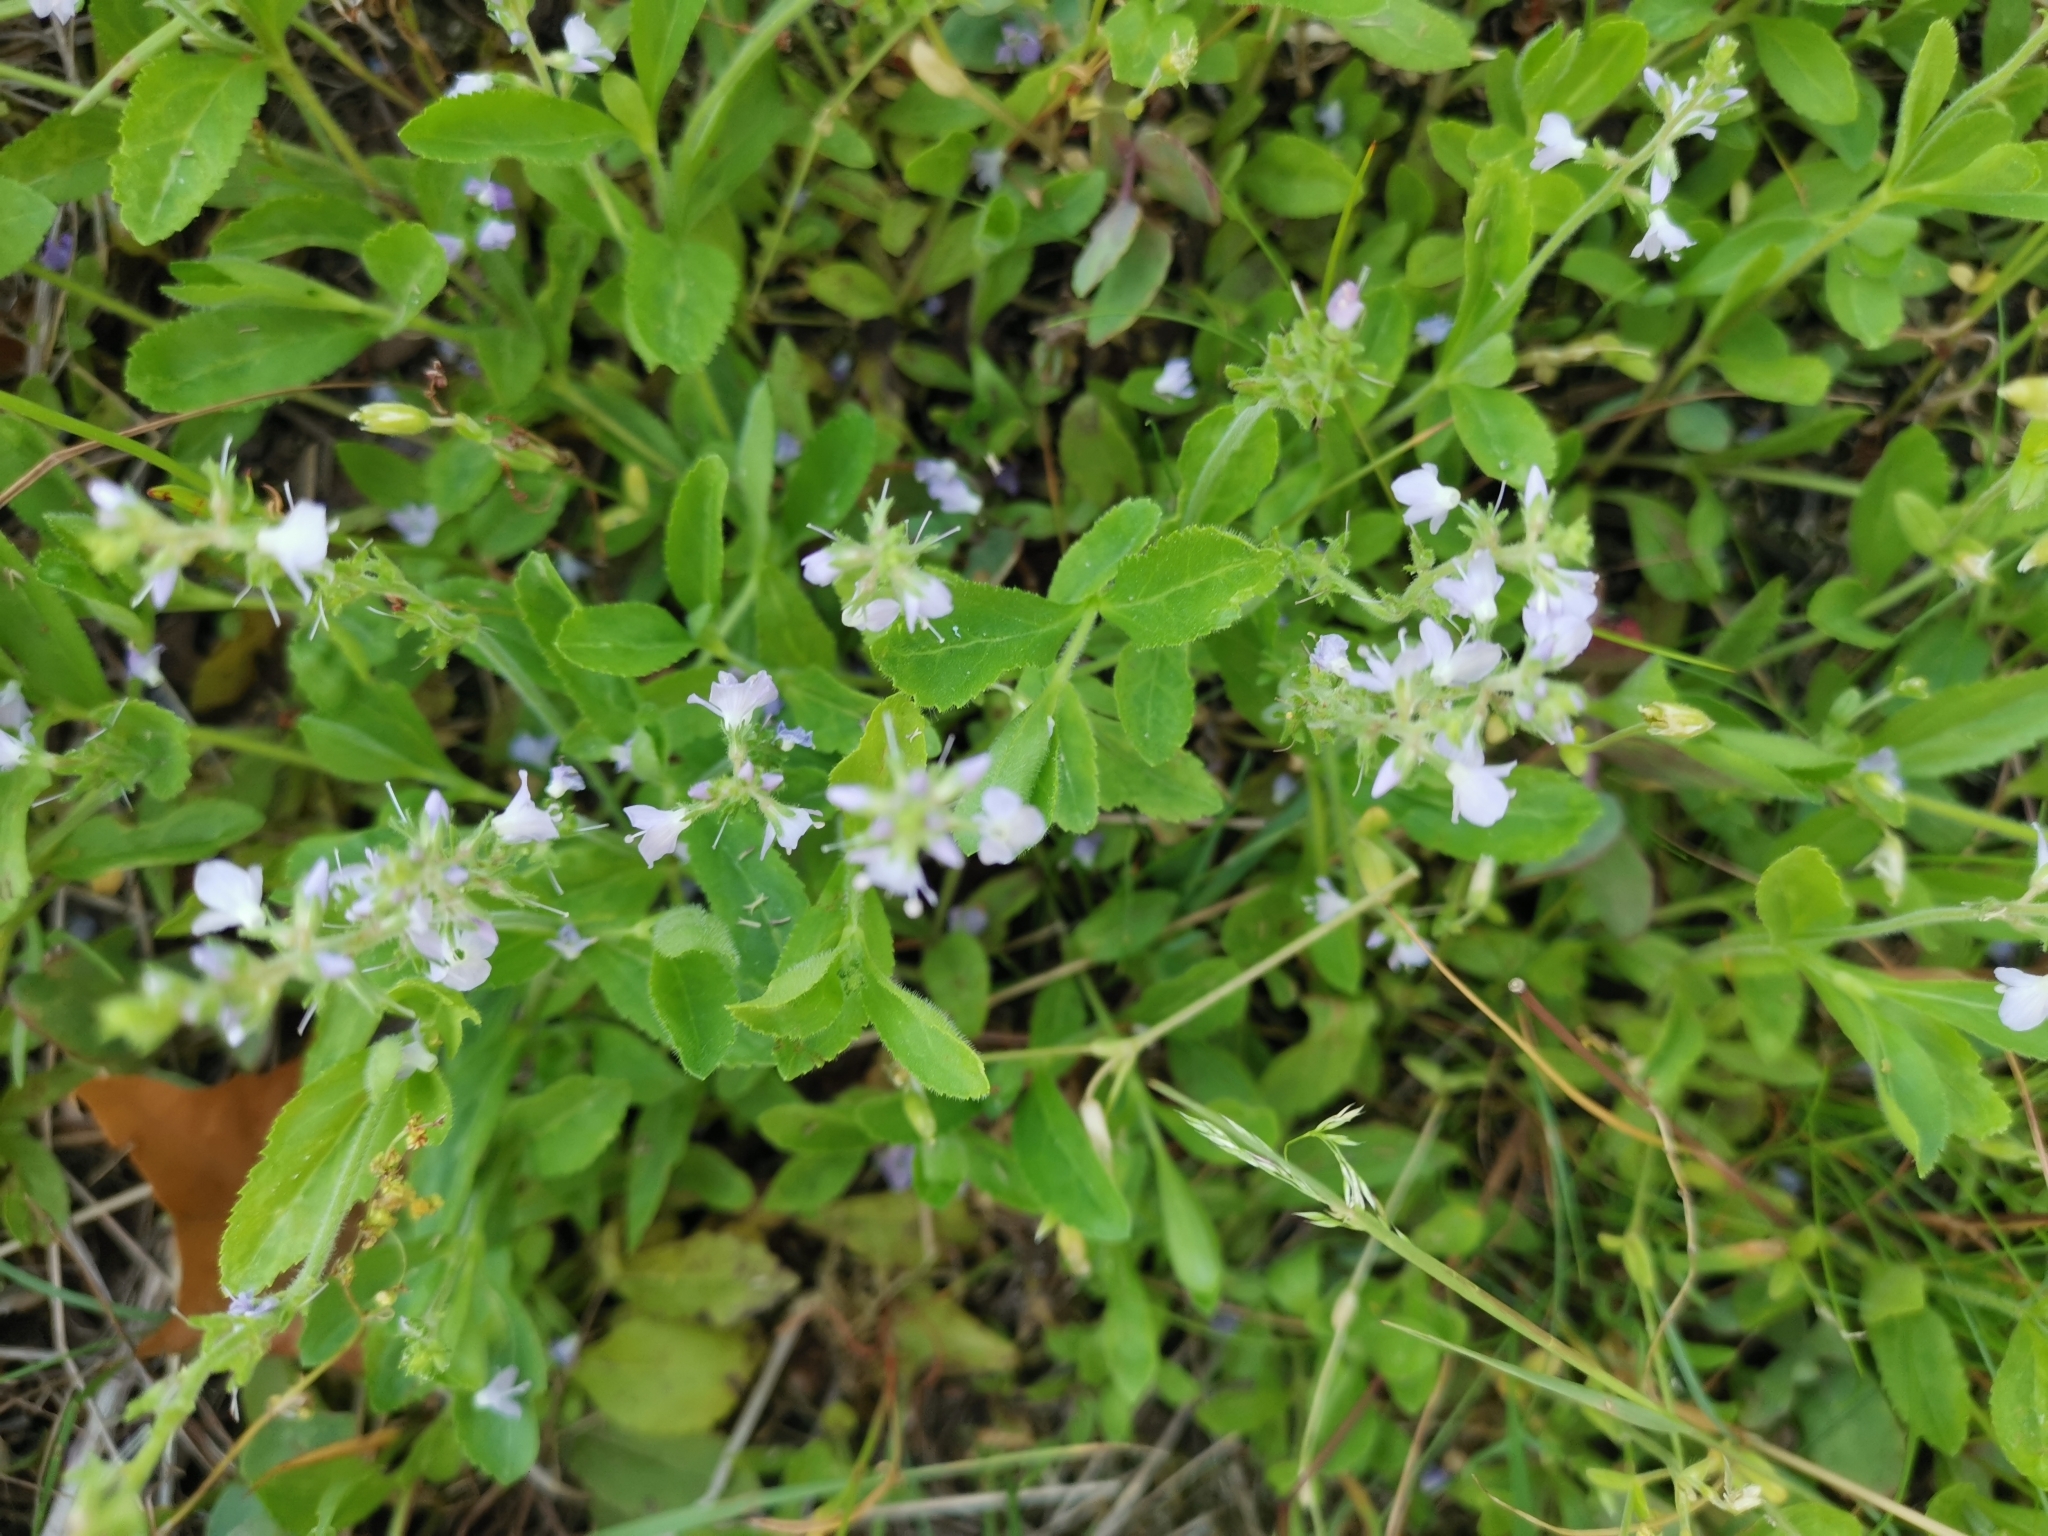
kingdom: Plantae
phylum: Tracheophyta
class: Magnoliopsida
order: Lamiales
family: Plantaginaceae
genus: Veronica
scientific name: Veronica officinalis
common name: Common speedwell
